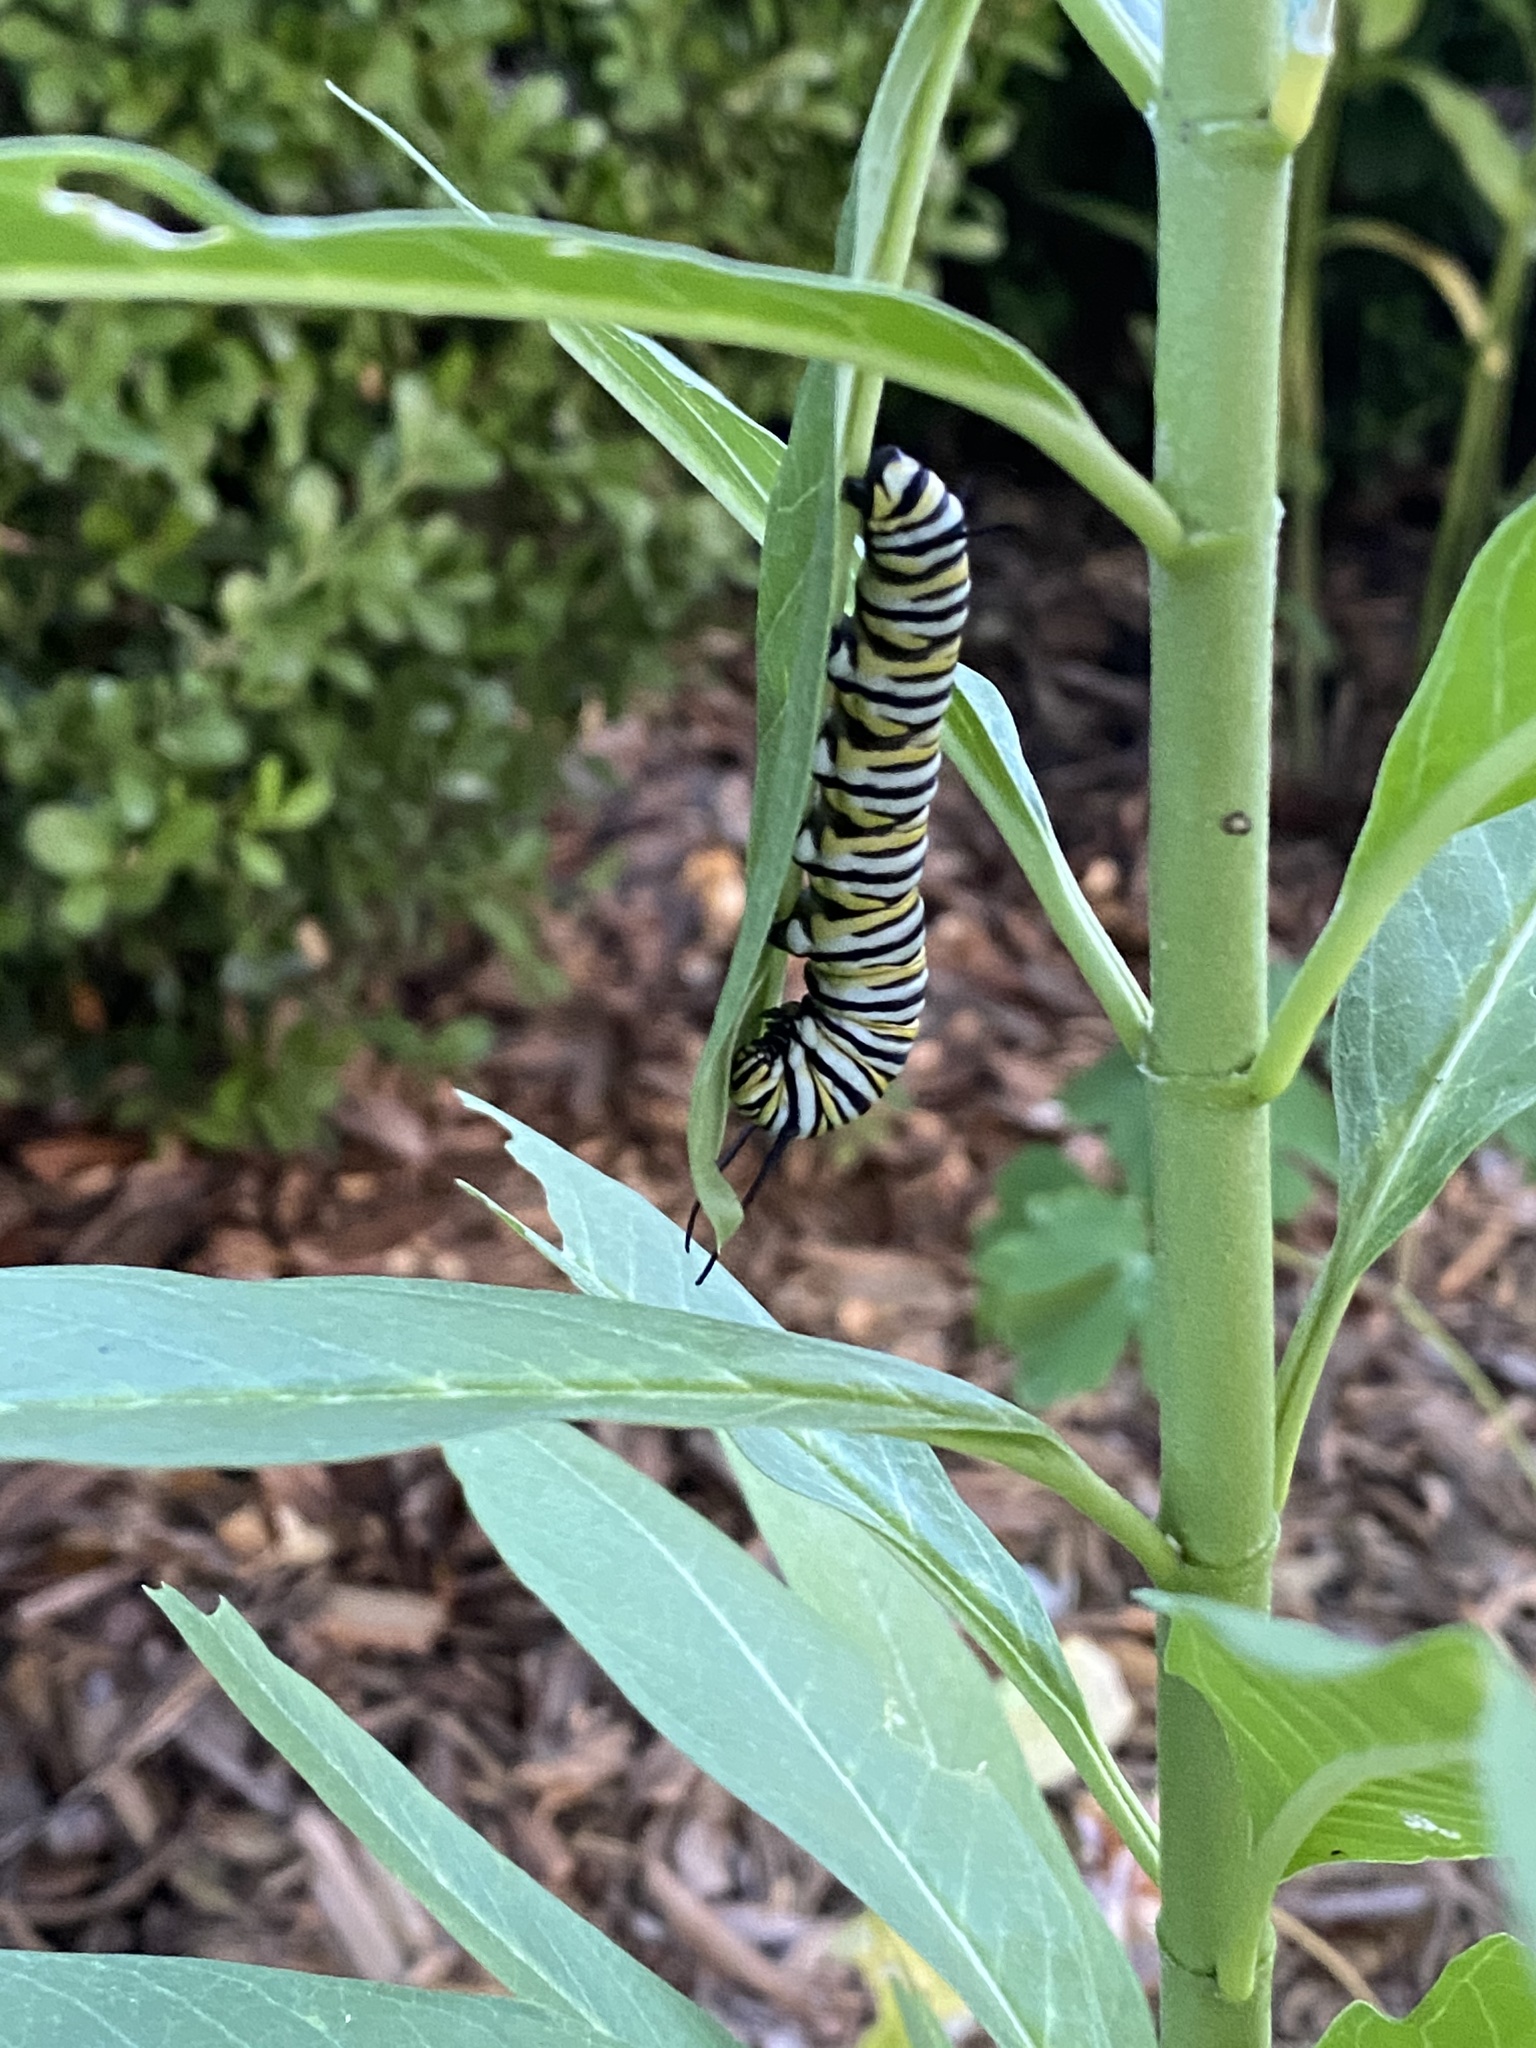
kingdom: Animalia
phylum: Arthropoda
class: Insecta
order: Lepidoptera
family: Nymphalidae
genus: Danaus
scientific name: Danaus plexippus
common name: Monarch
